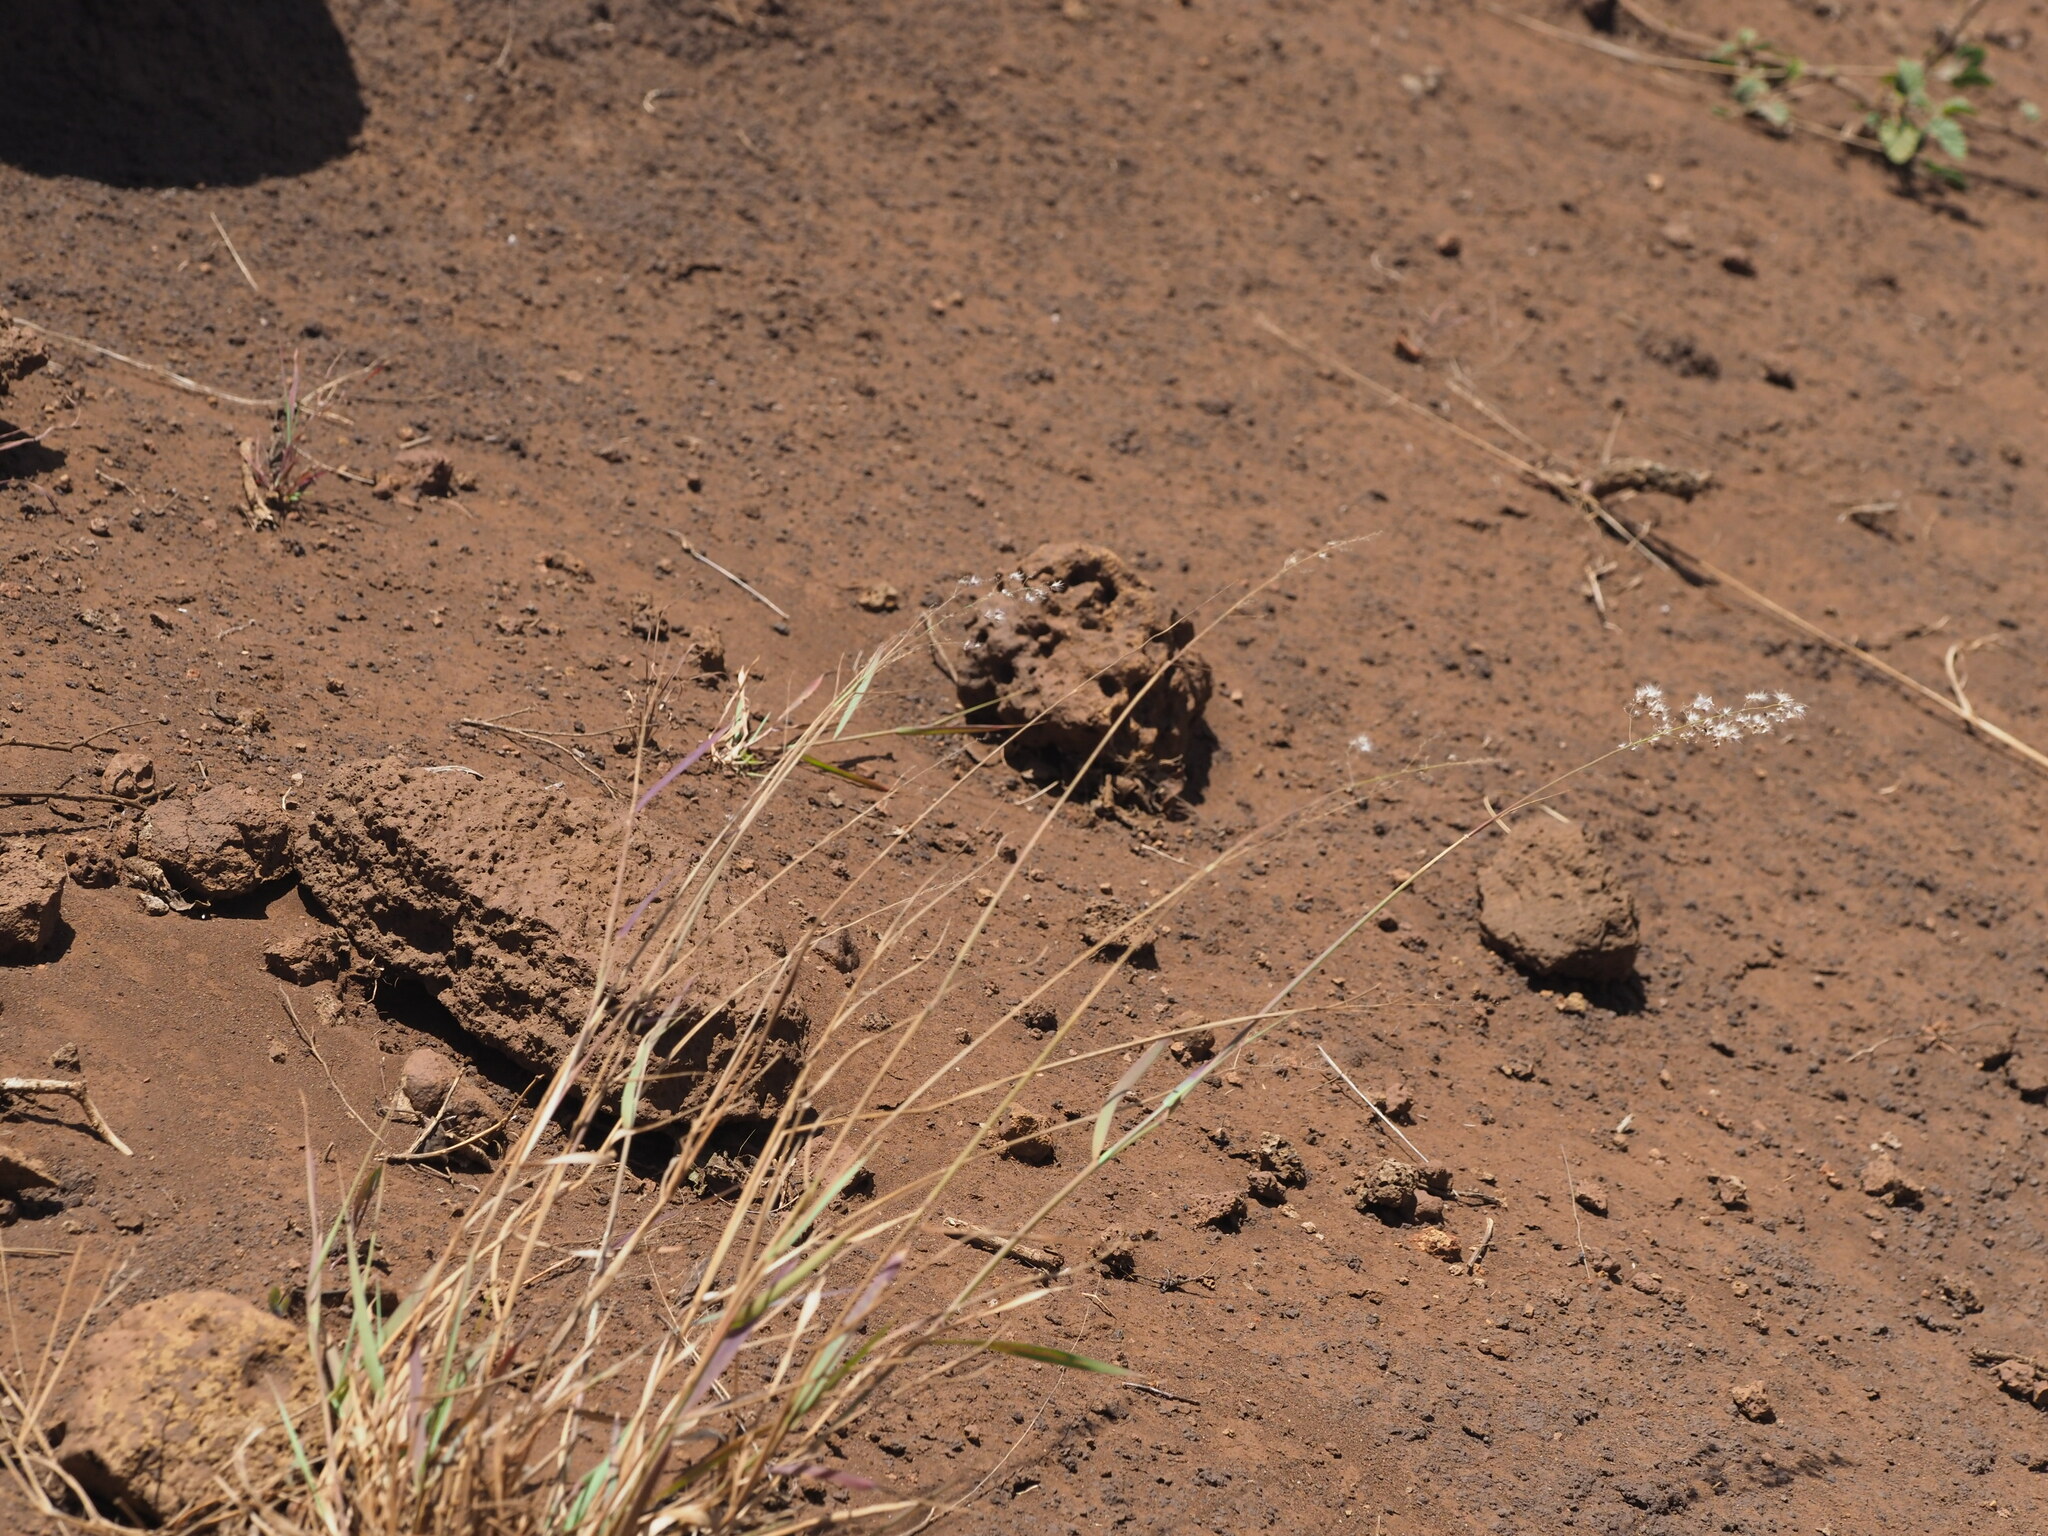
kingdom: Plantae
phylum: Tracheophyta
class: Liliopsida
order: Poales
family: Poaceae
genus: Melinis
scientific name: Melinis repens
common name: Rose natal grass
